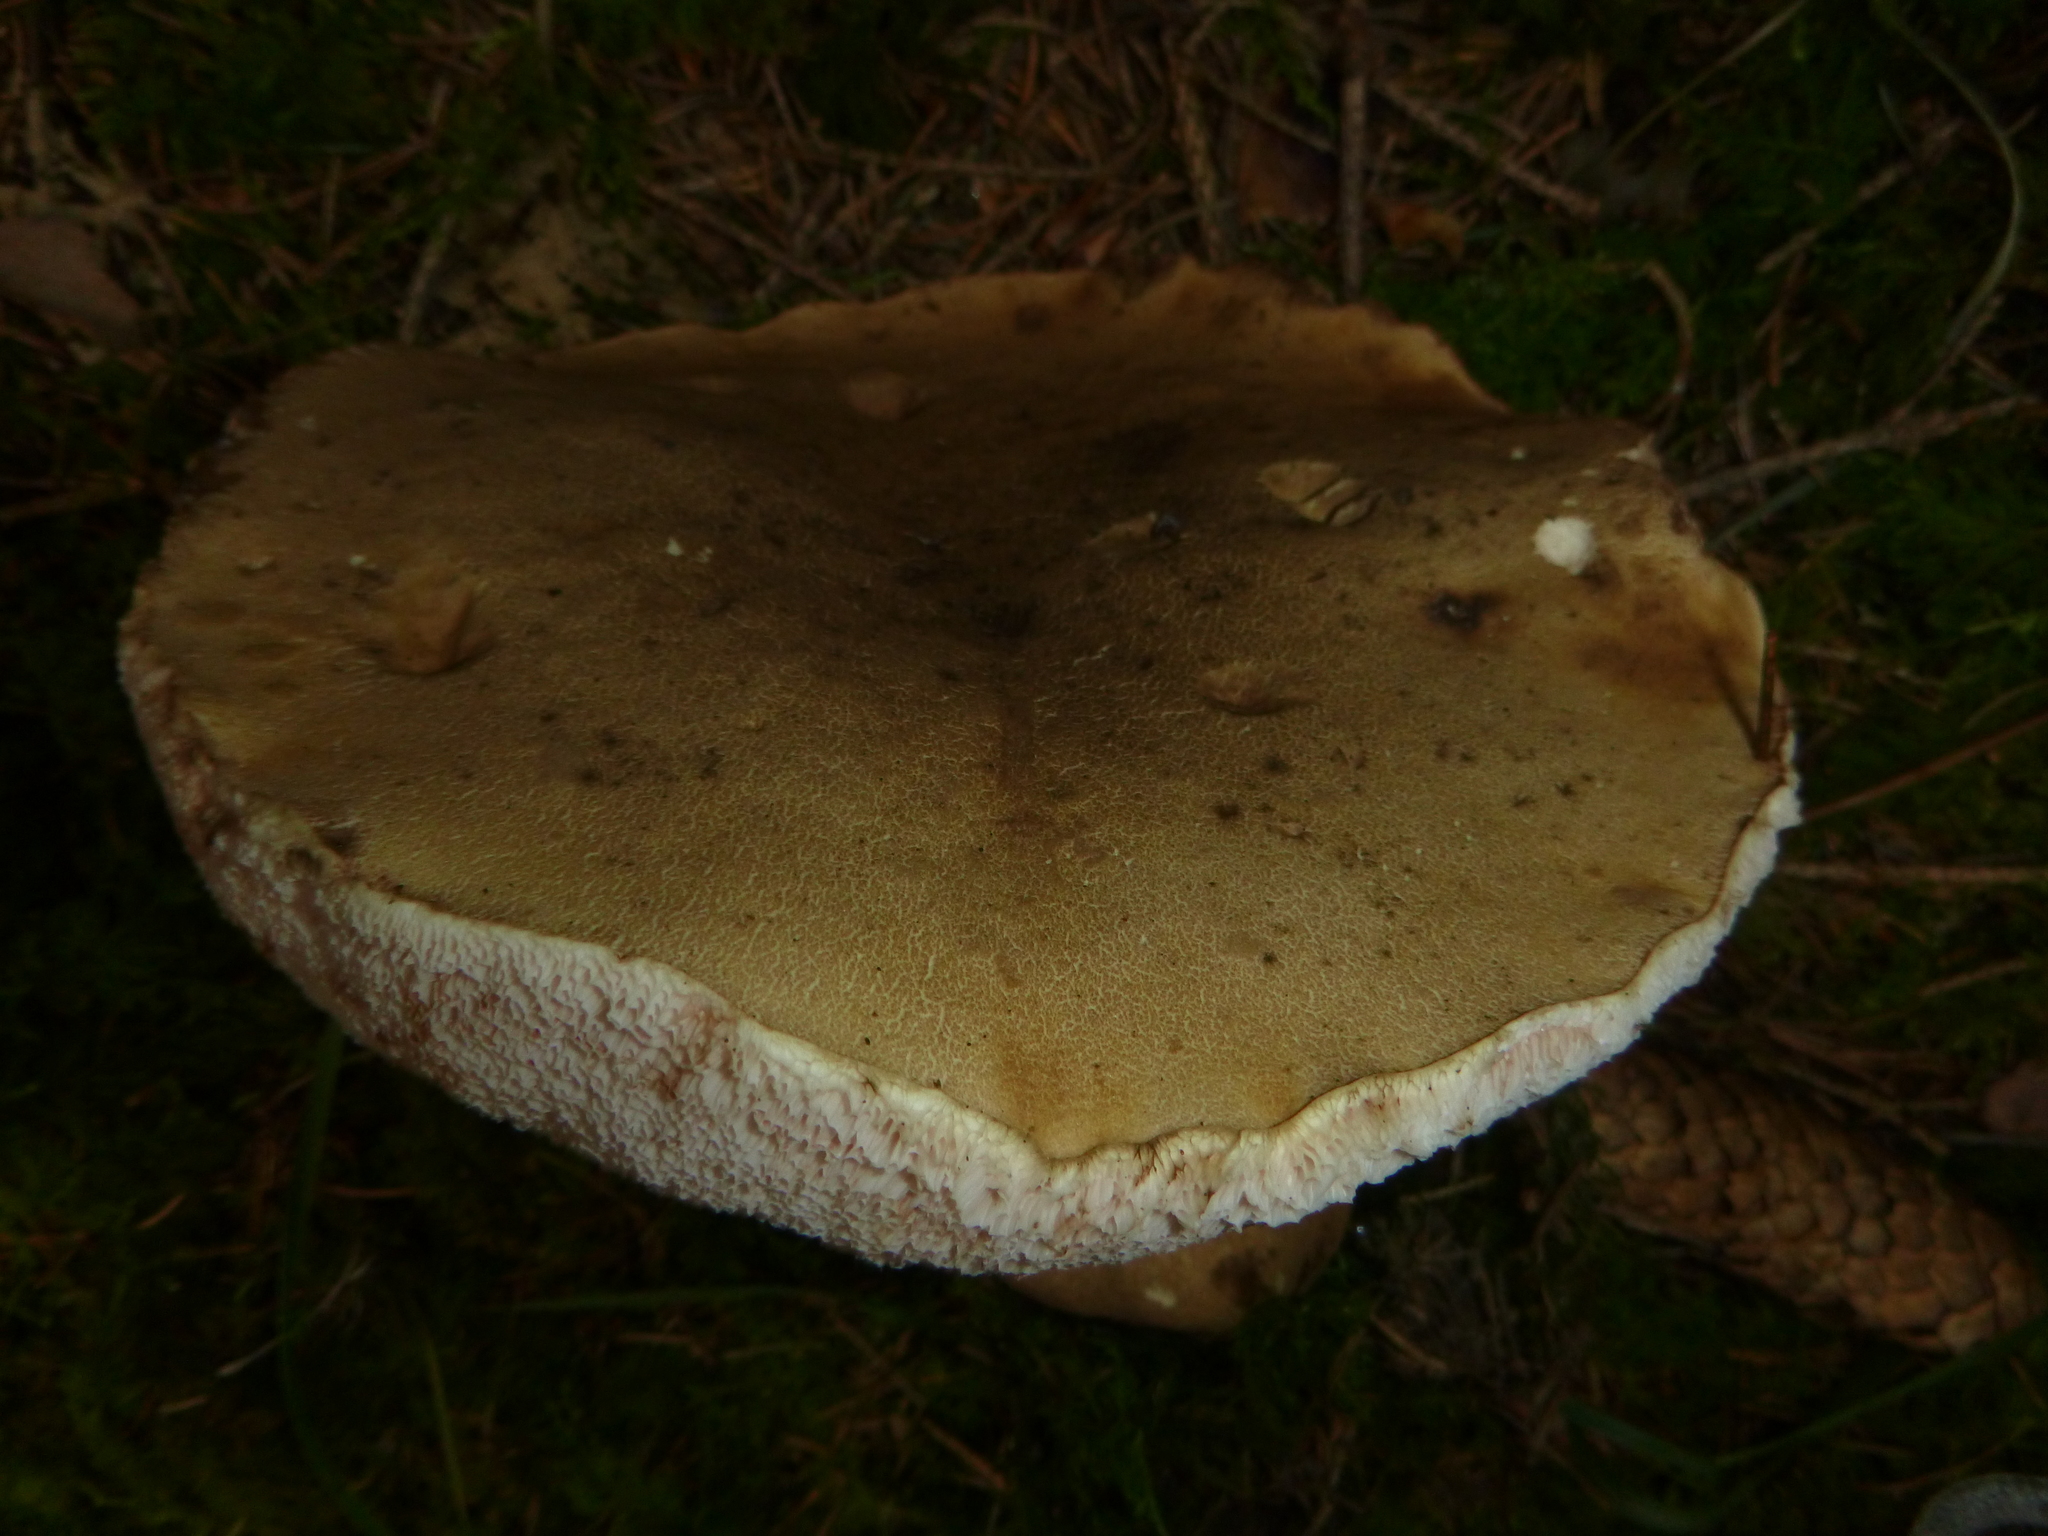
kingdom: Fungi
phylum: Basidiomycota
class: Agaricomycetes
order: Boletales
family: Boletaceae
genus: Tylopilus
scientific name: Tylopilus felleus
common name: Bitter bolete
